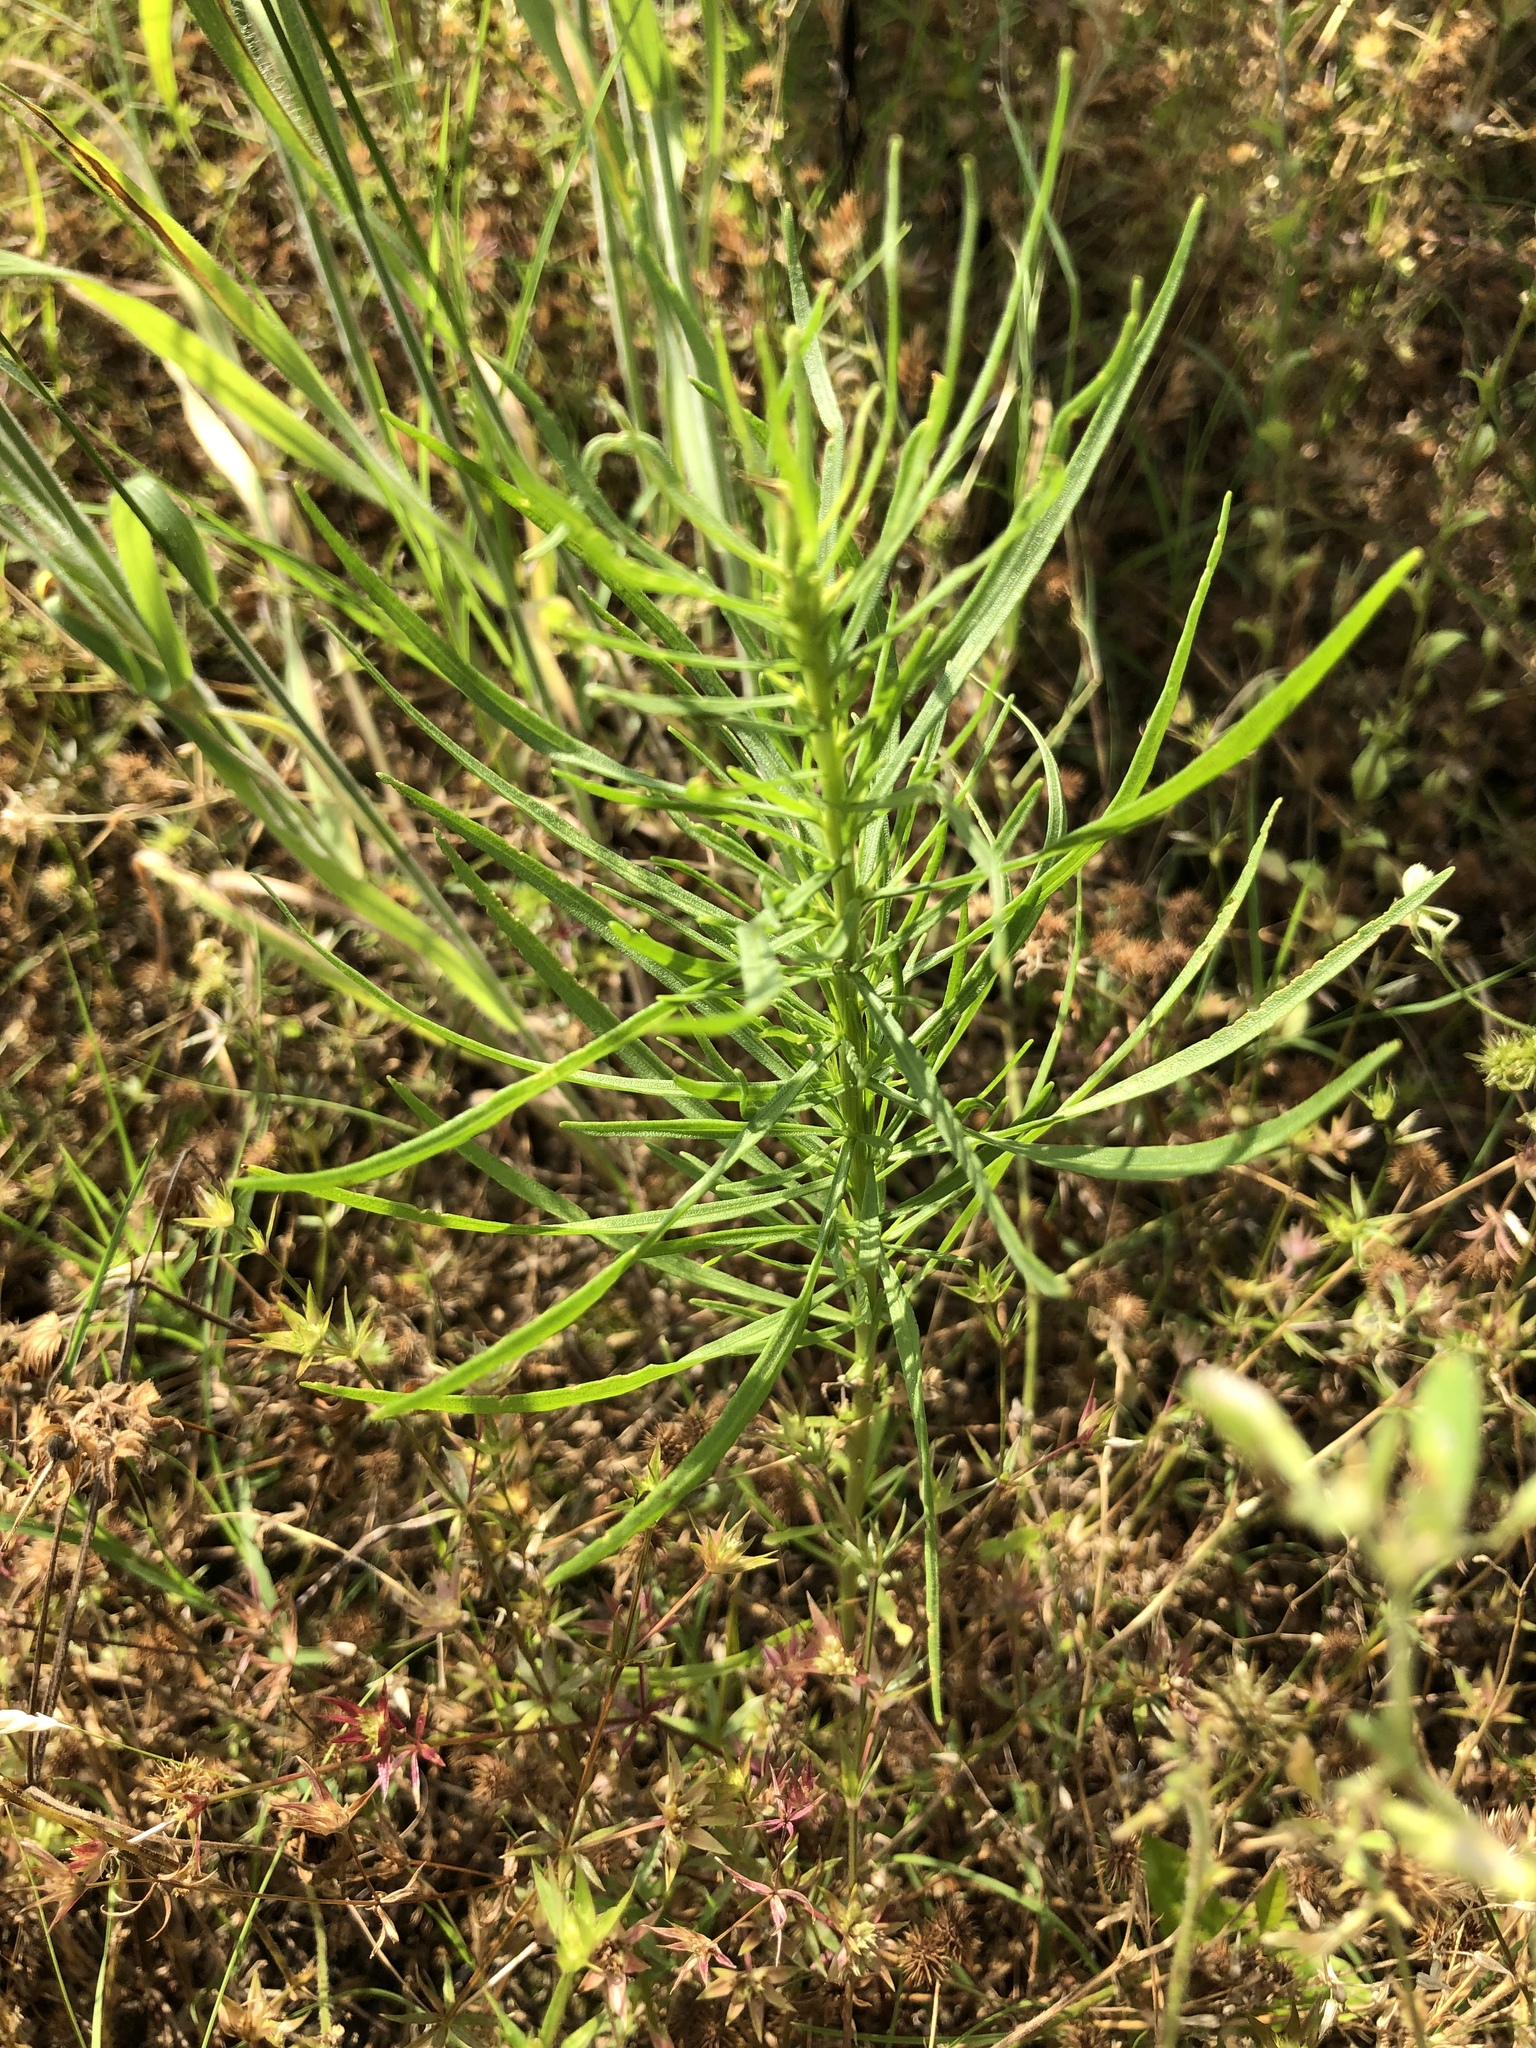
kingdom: Plantae
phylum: Tracheophyta
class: Magnoliopsida
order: Asterales
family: Asteraceae
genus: Helenium
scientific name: Helenium amarum
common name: Bitter sneezeweed
